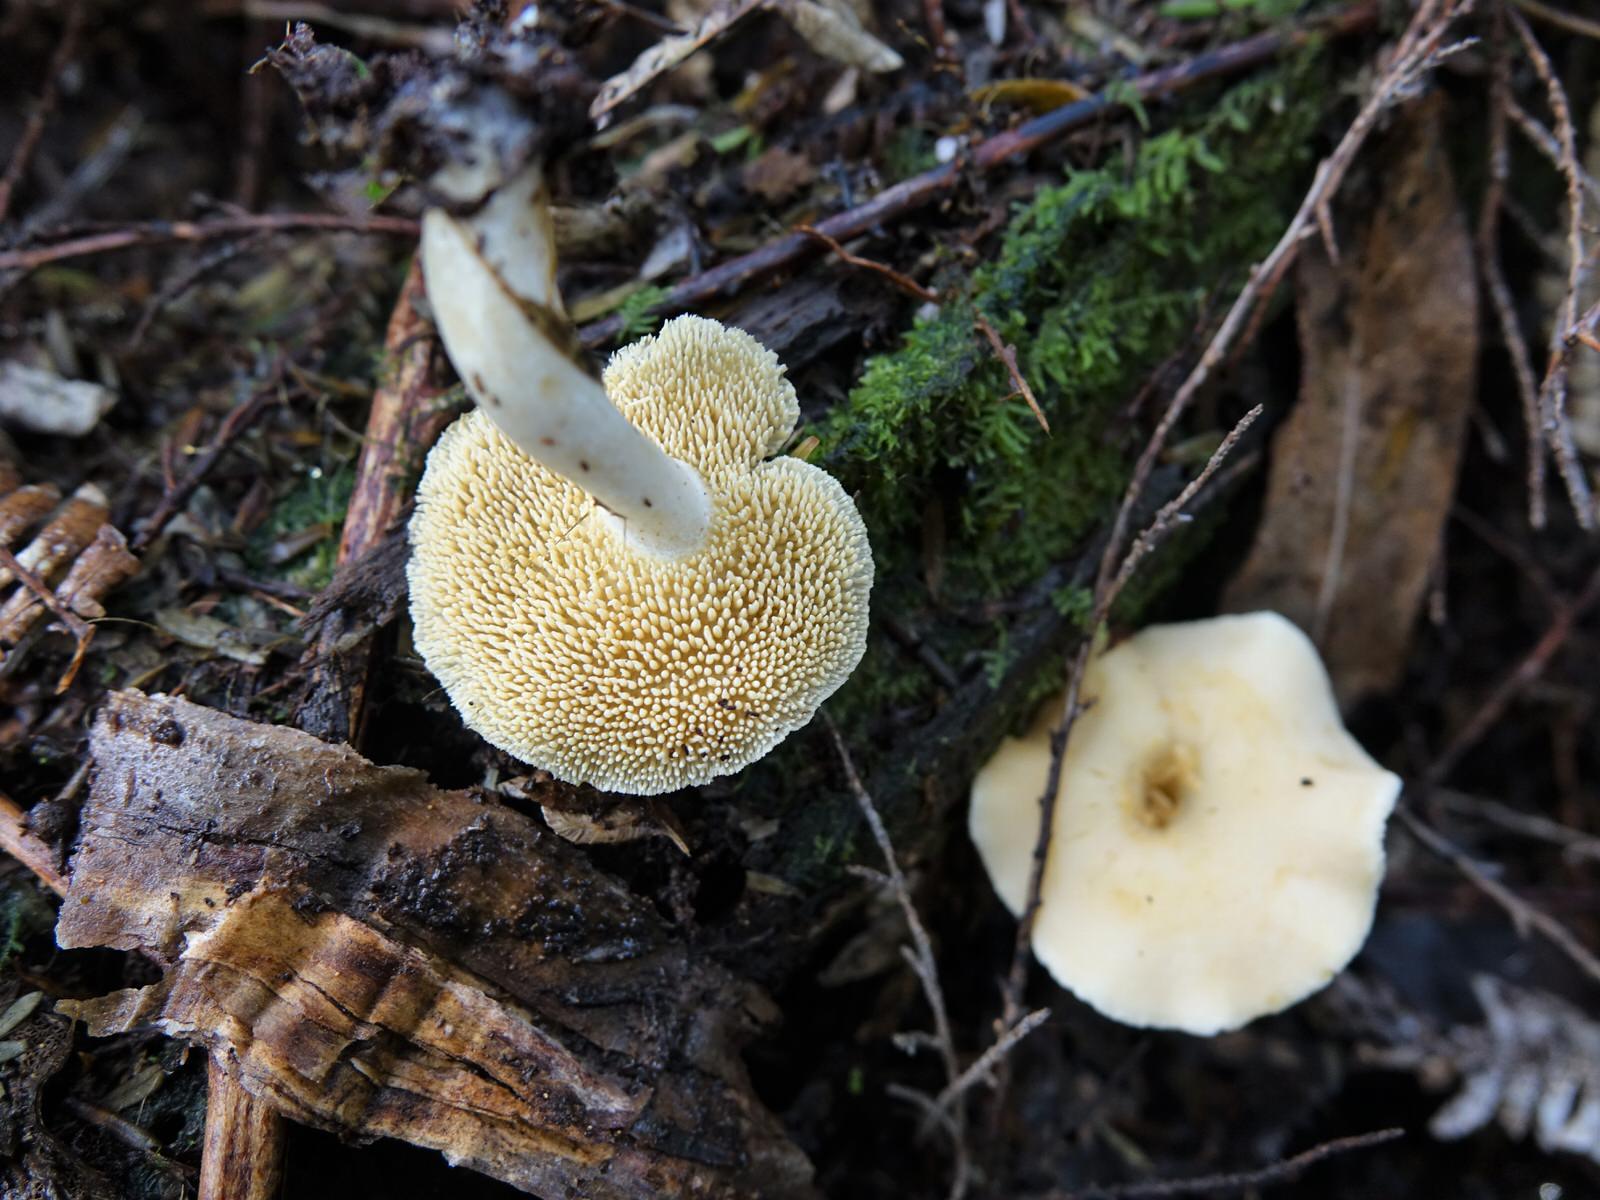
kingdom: Fungi
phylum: Basidiomycota
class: Agaricomycetes
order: Cantharellales
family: Hydnaceae
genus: Hydnum
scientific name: Hydnum ambustum
